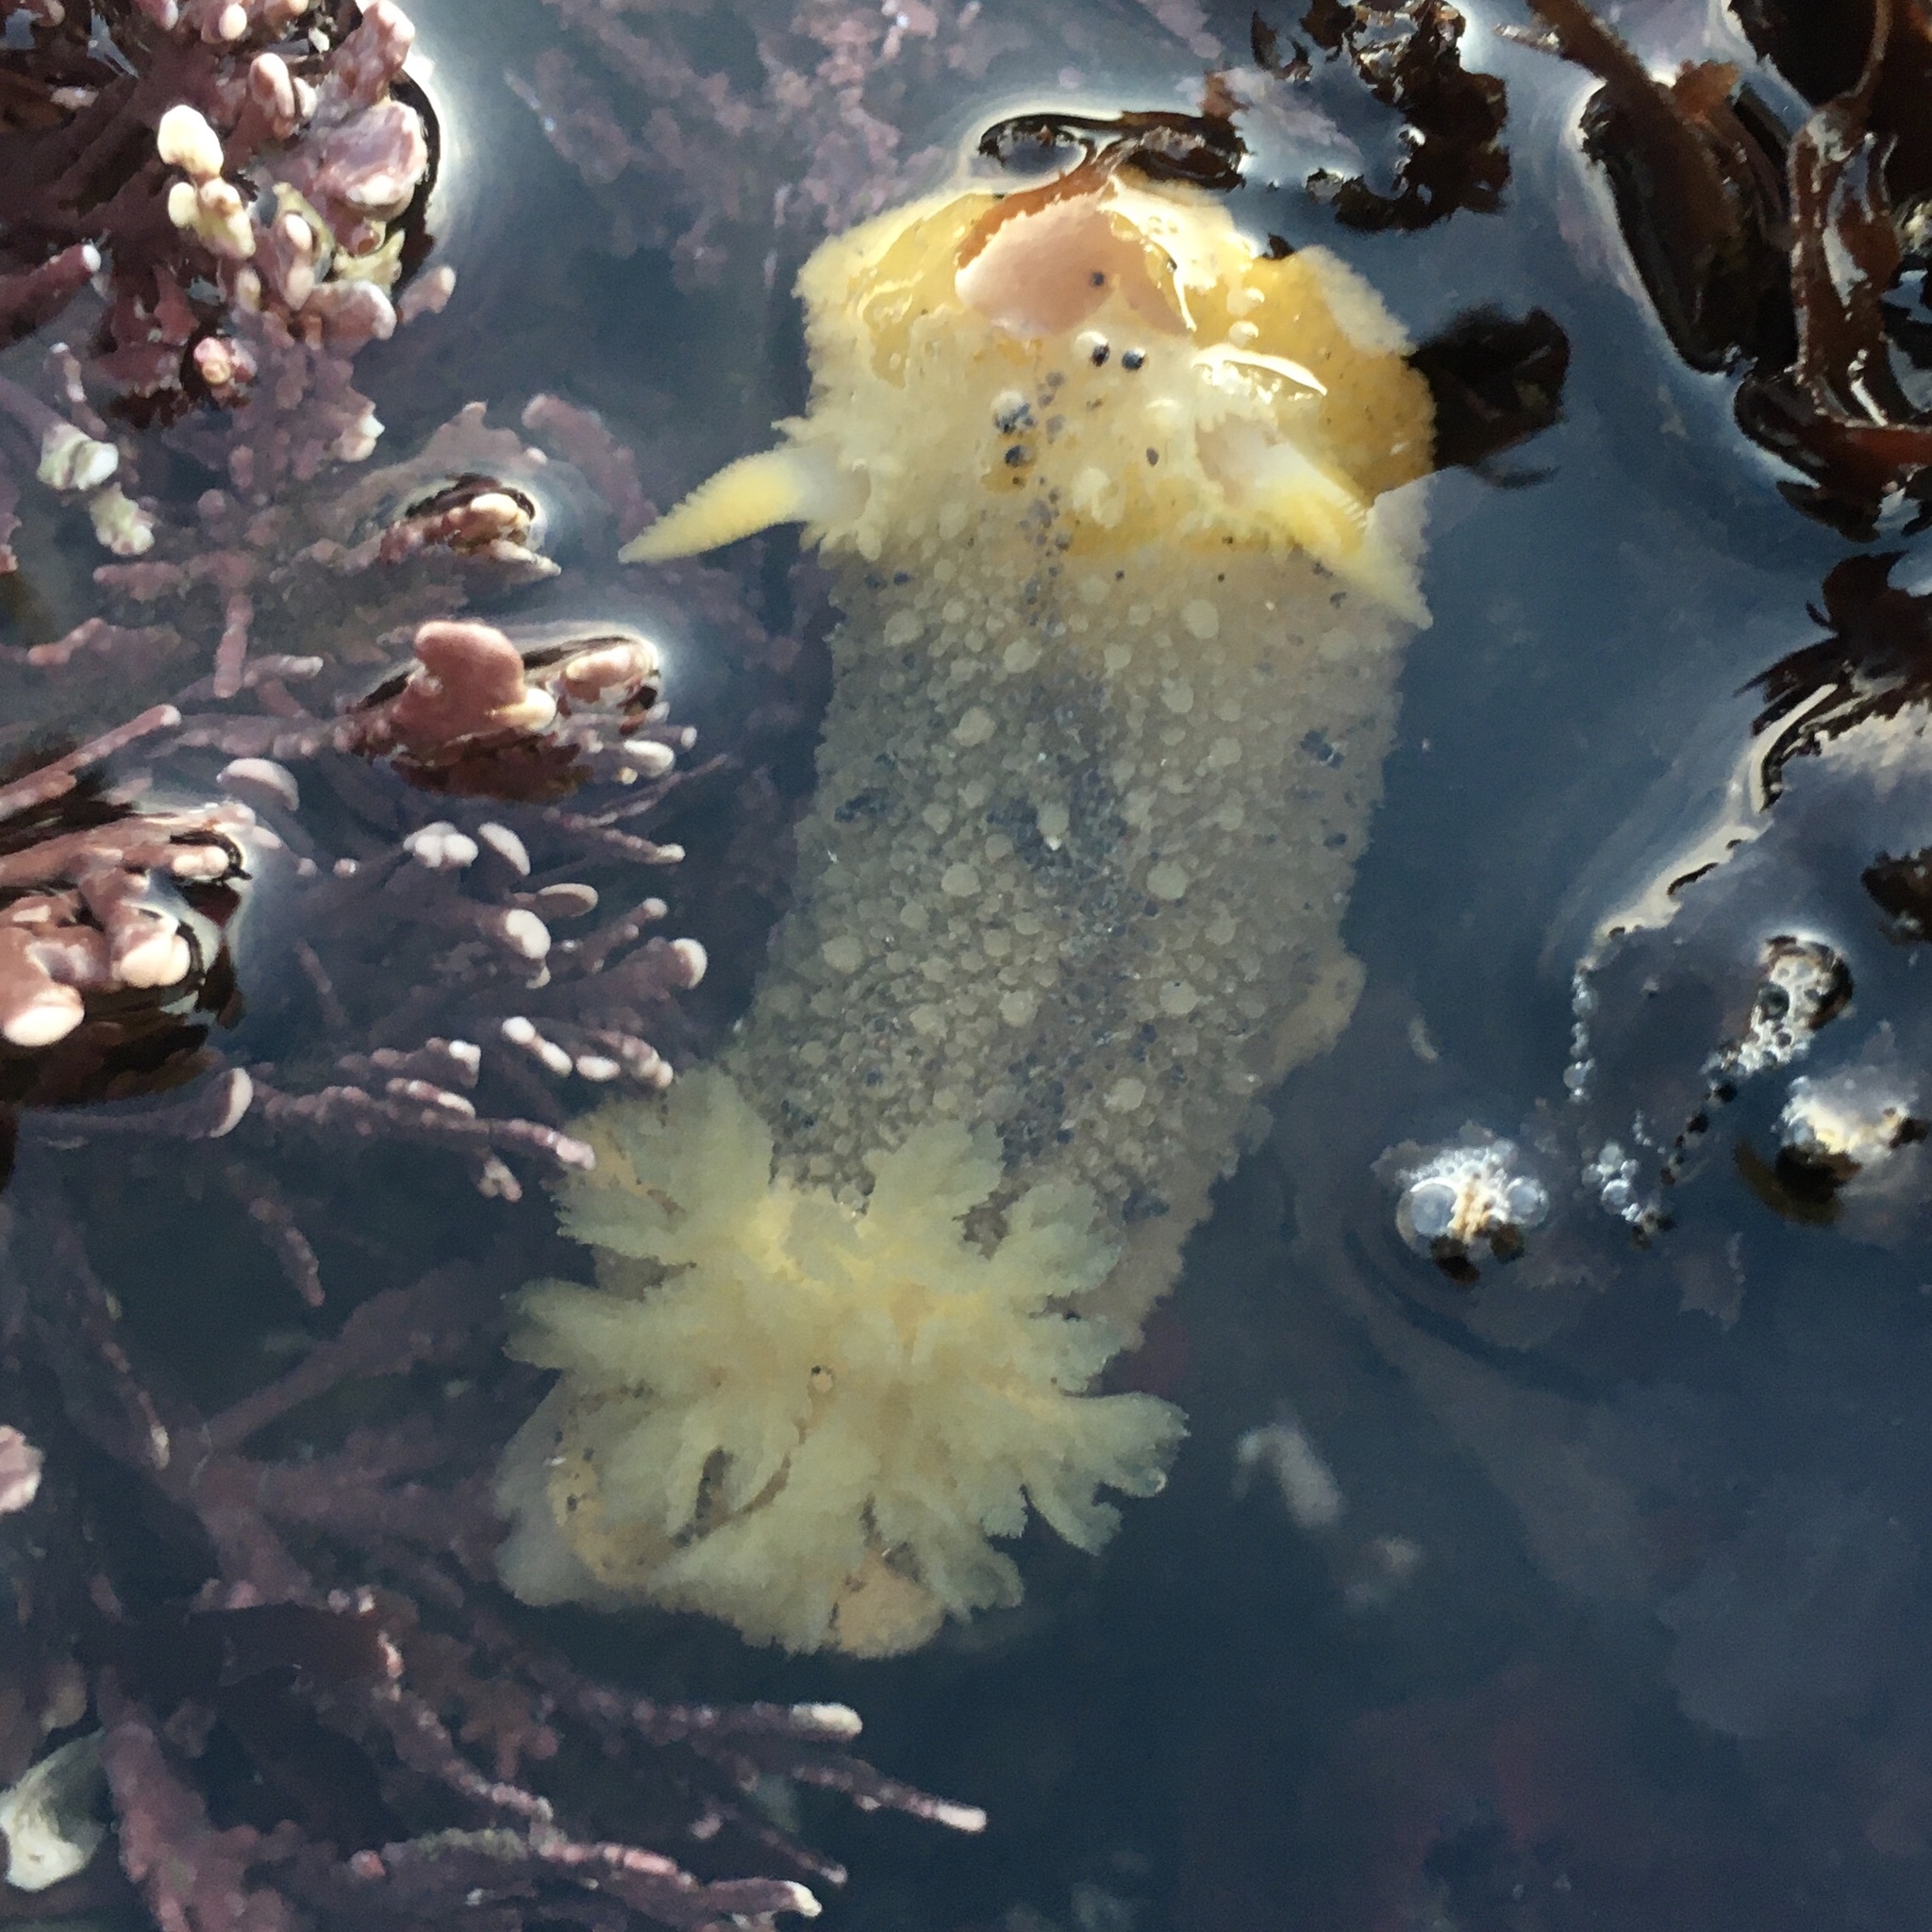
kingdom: Animalia
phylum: Mollusca
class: Gastropoda
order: Nudibranchia
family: Dorididae
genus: Doris
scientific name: Doris montereyensis
